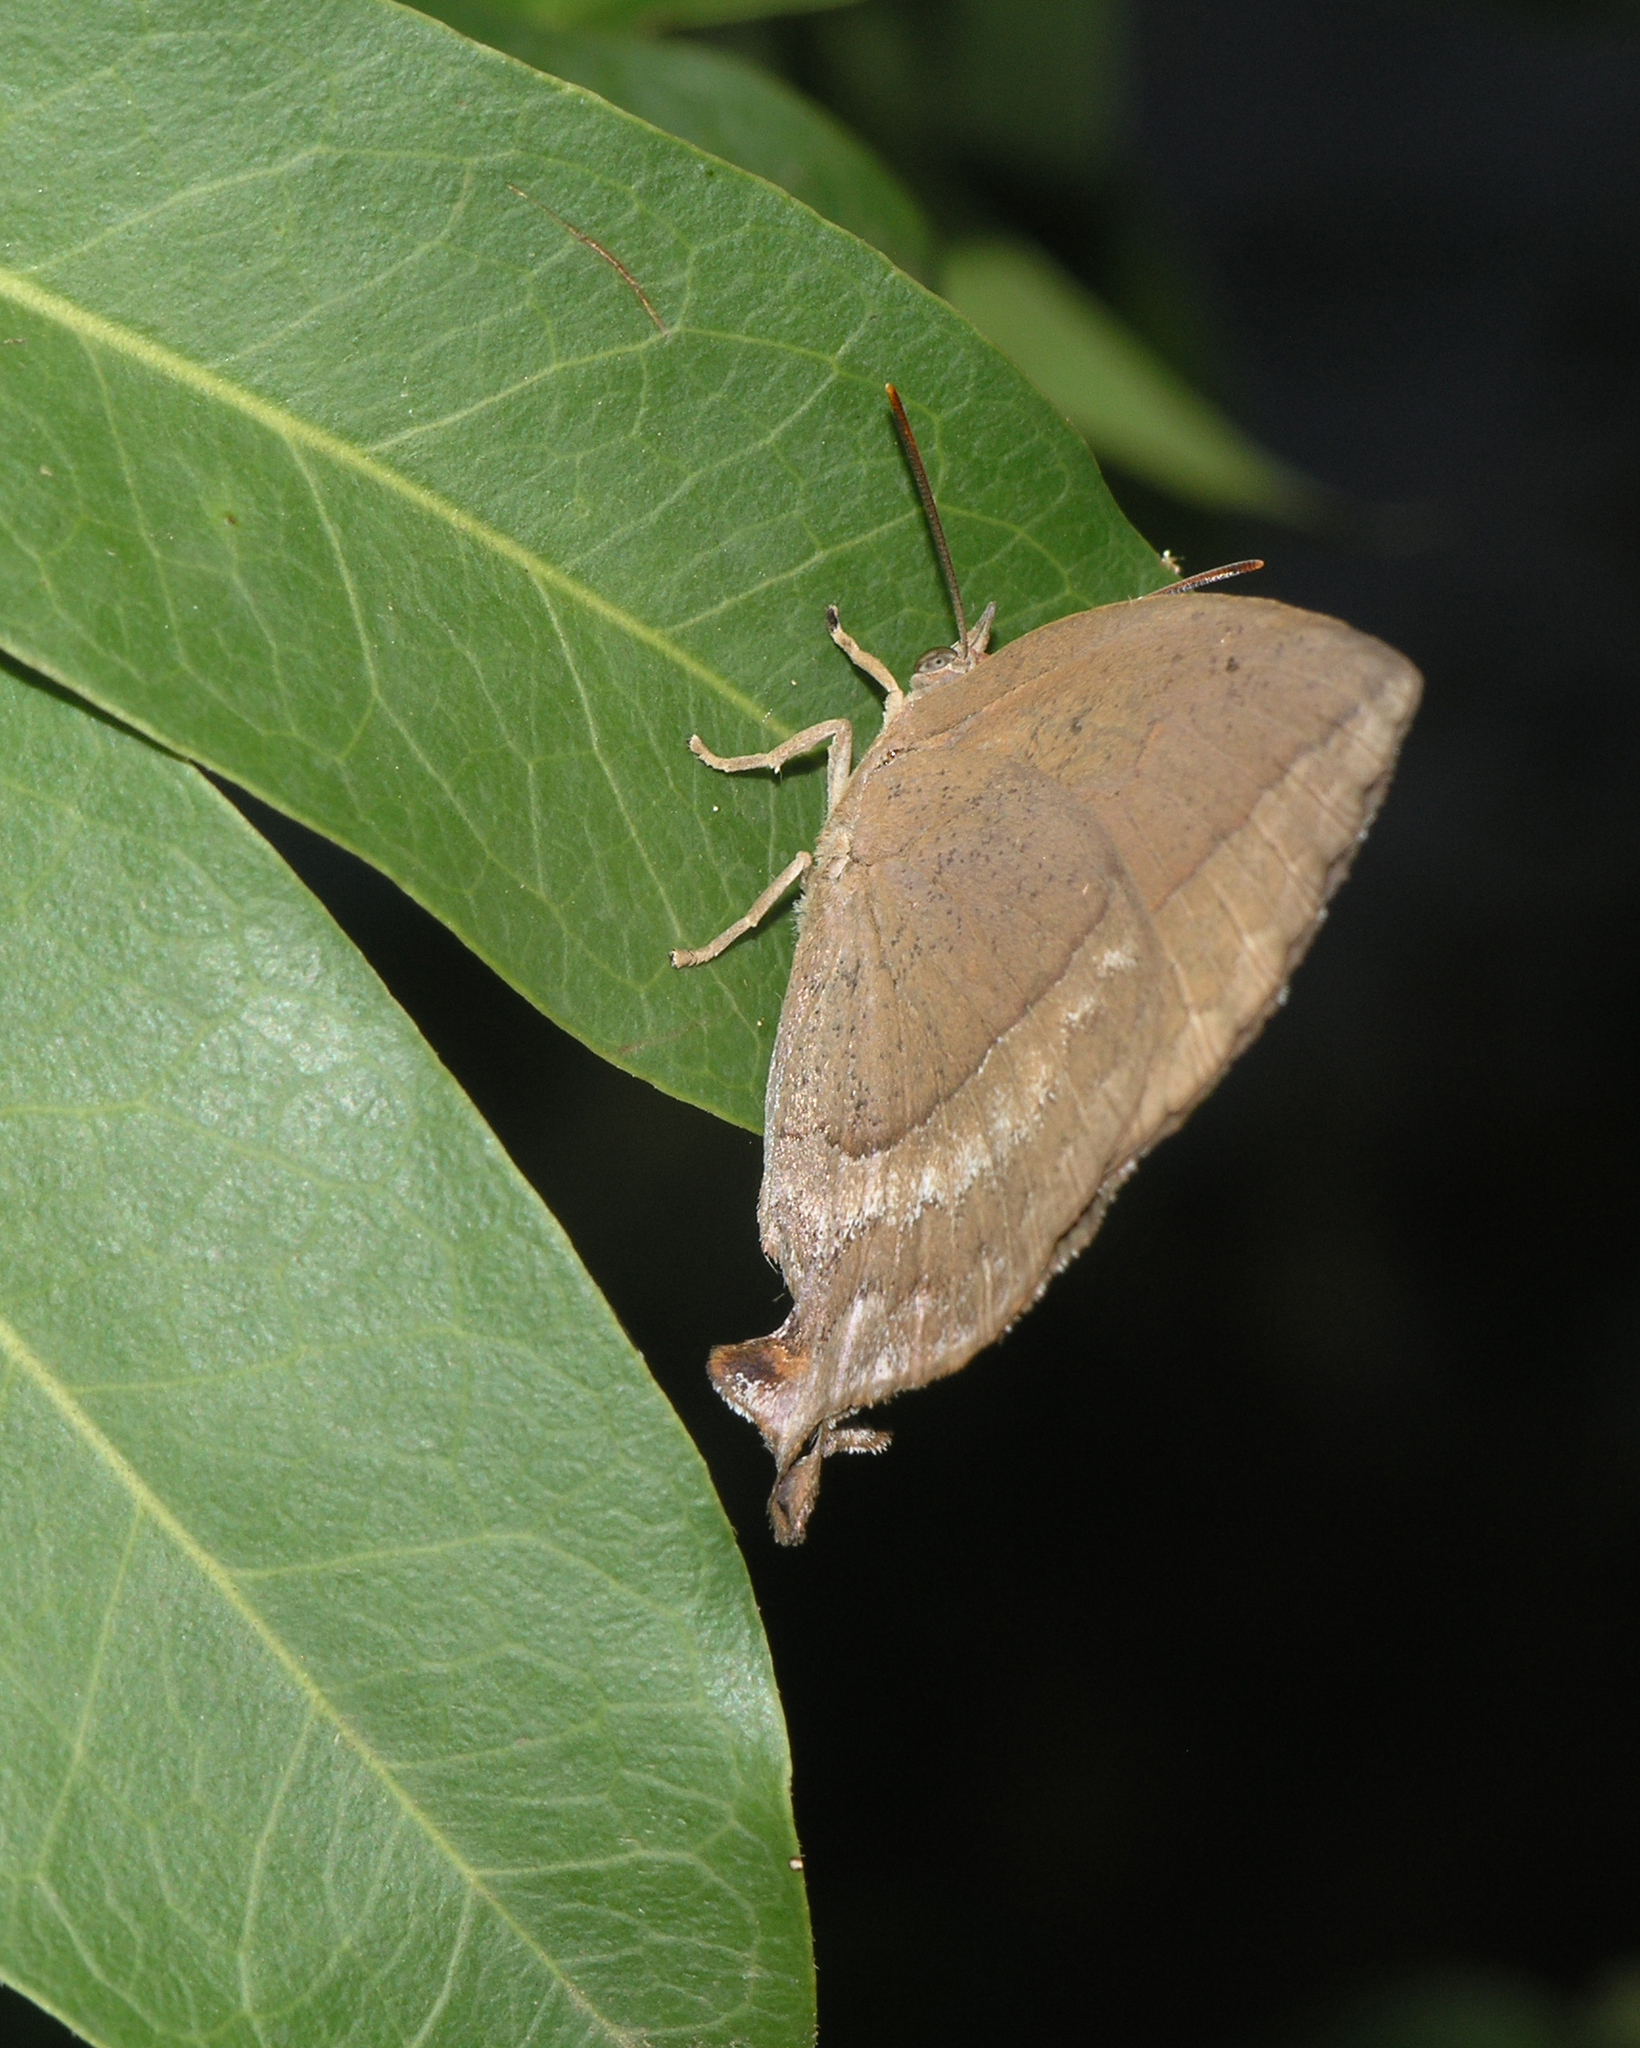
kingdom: Animalia
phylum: Arthropoda
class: Insecta
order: Lepidoptera
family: Lycaenidae
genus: Amblypodia
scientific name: Amblypodia anita
